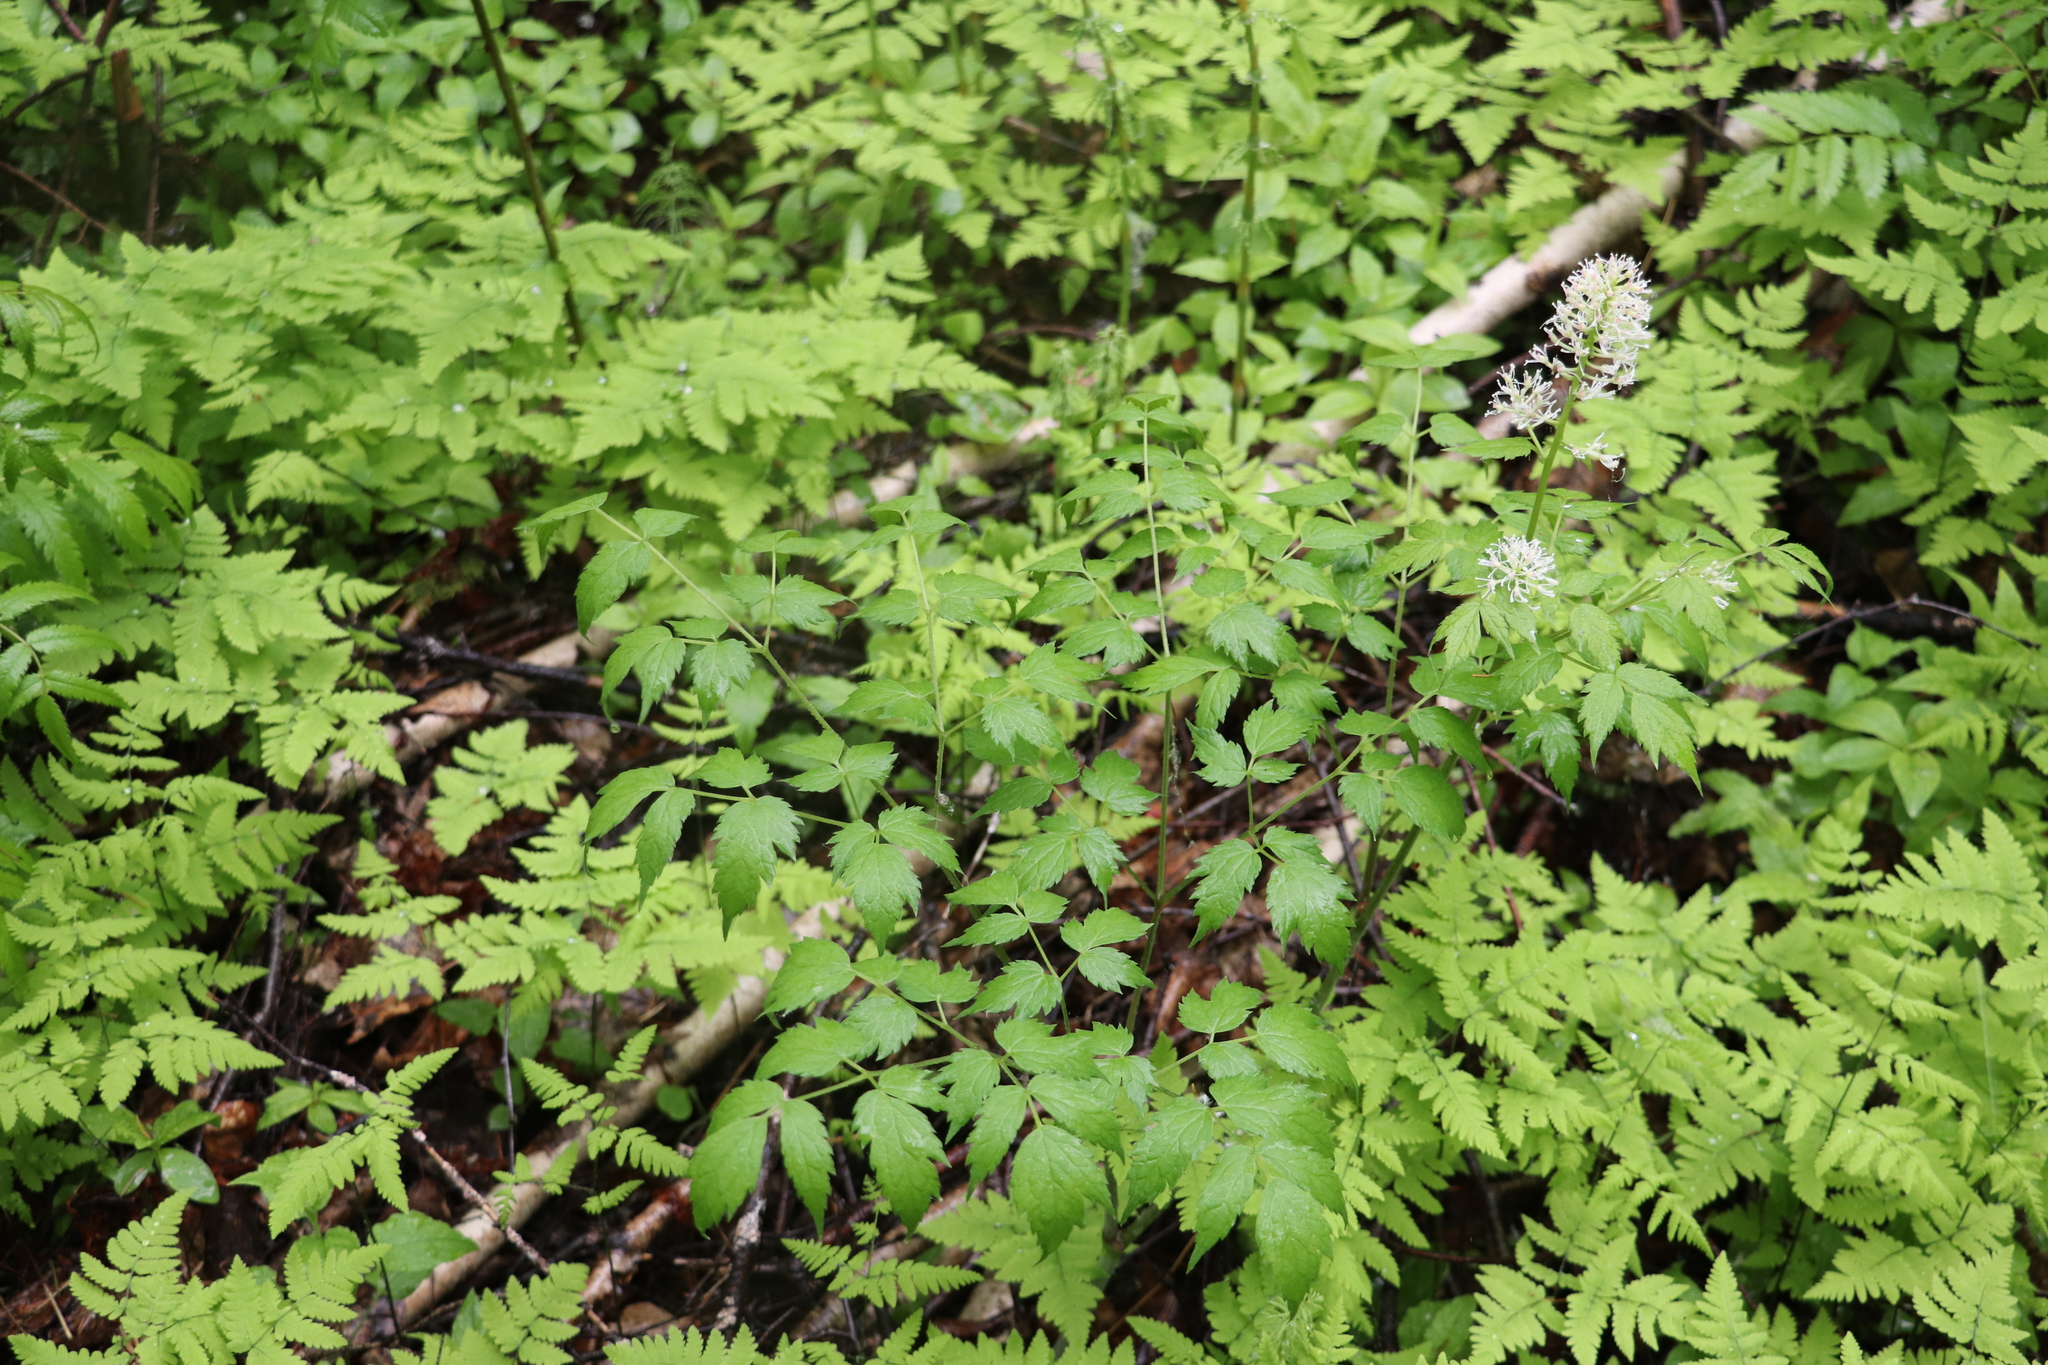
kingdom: Plantae
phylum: Tracheophyta
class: Magnoliopsida
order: Ranunculales
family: Ranunculaceae
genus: Actaea
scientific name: Actaea erythrocarpa
